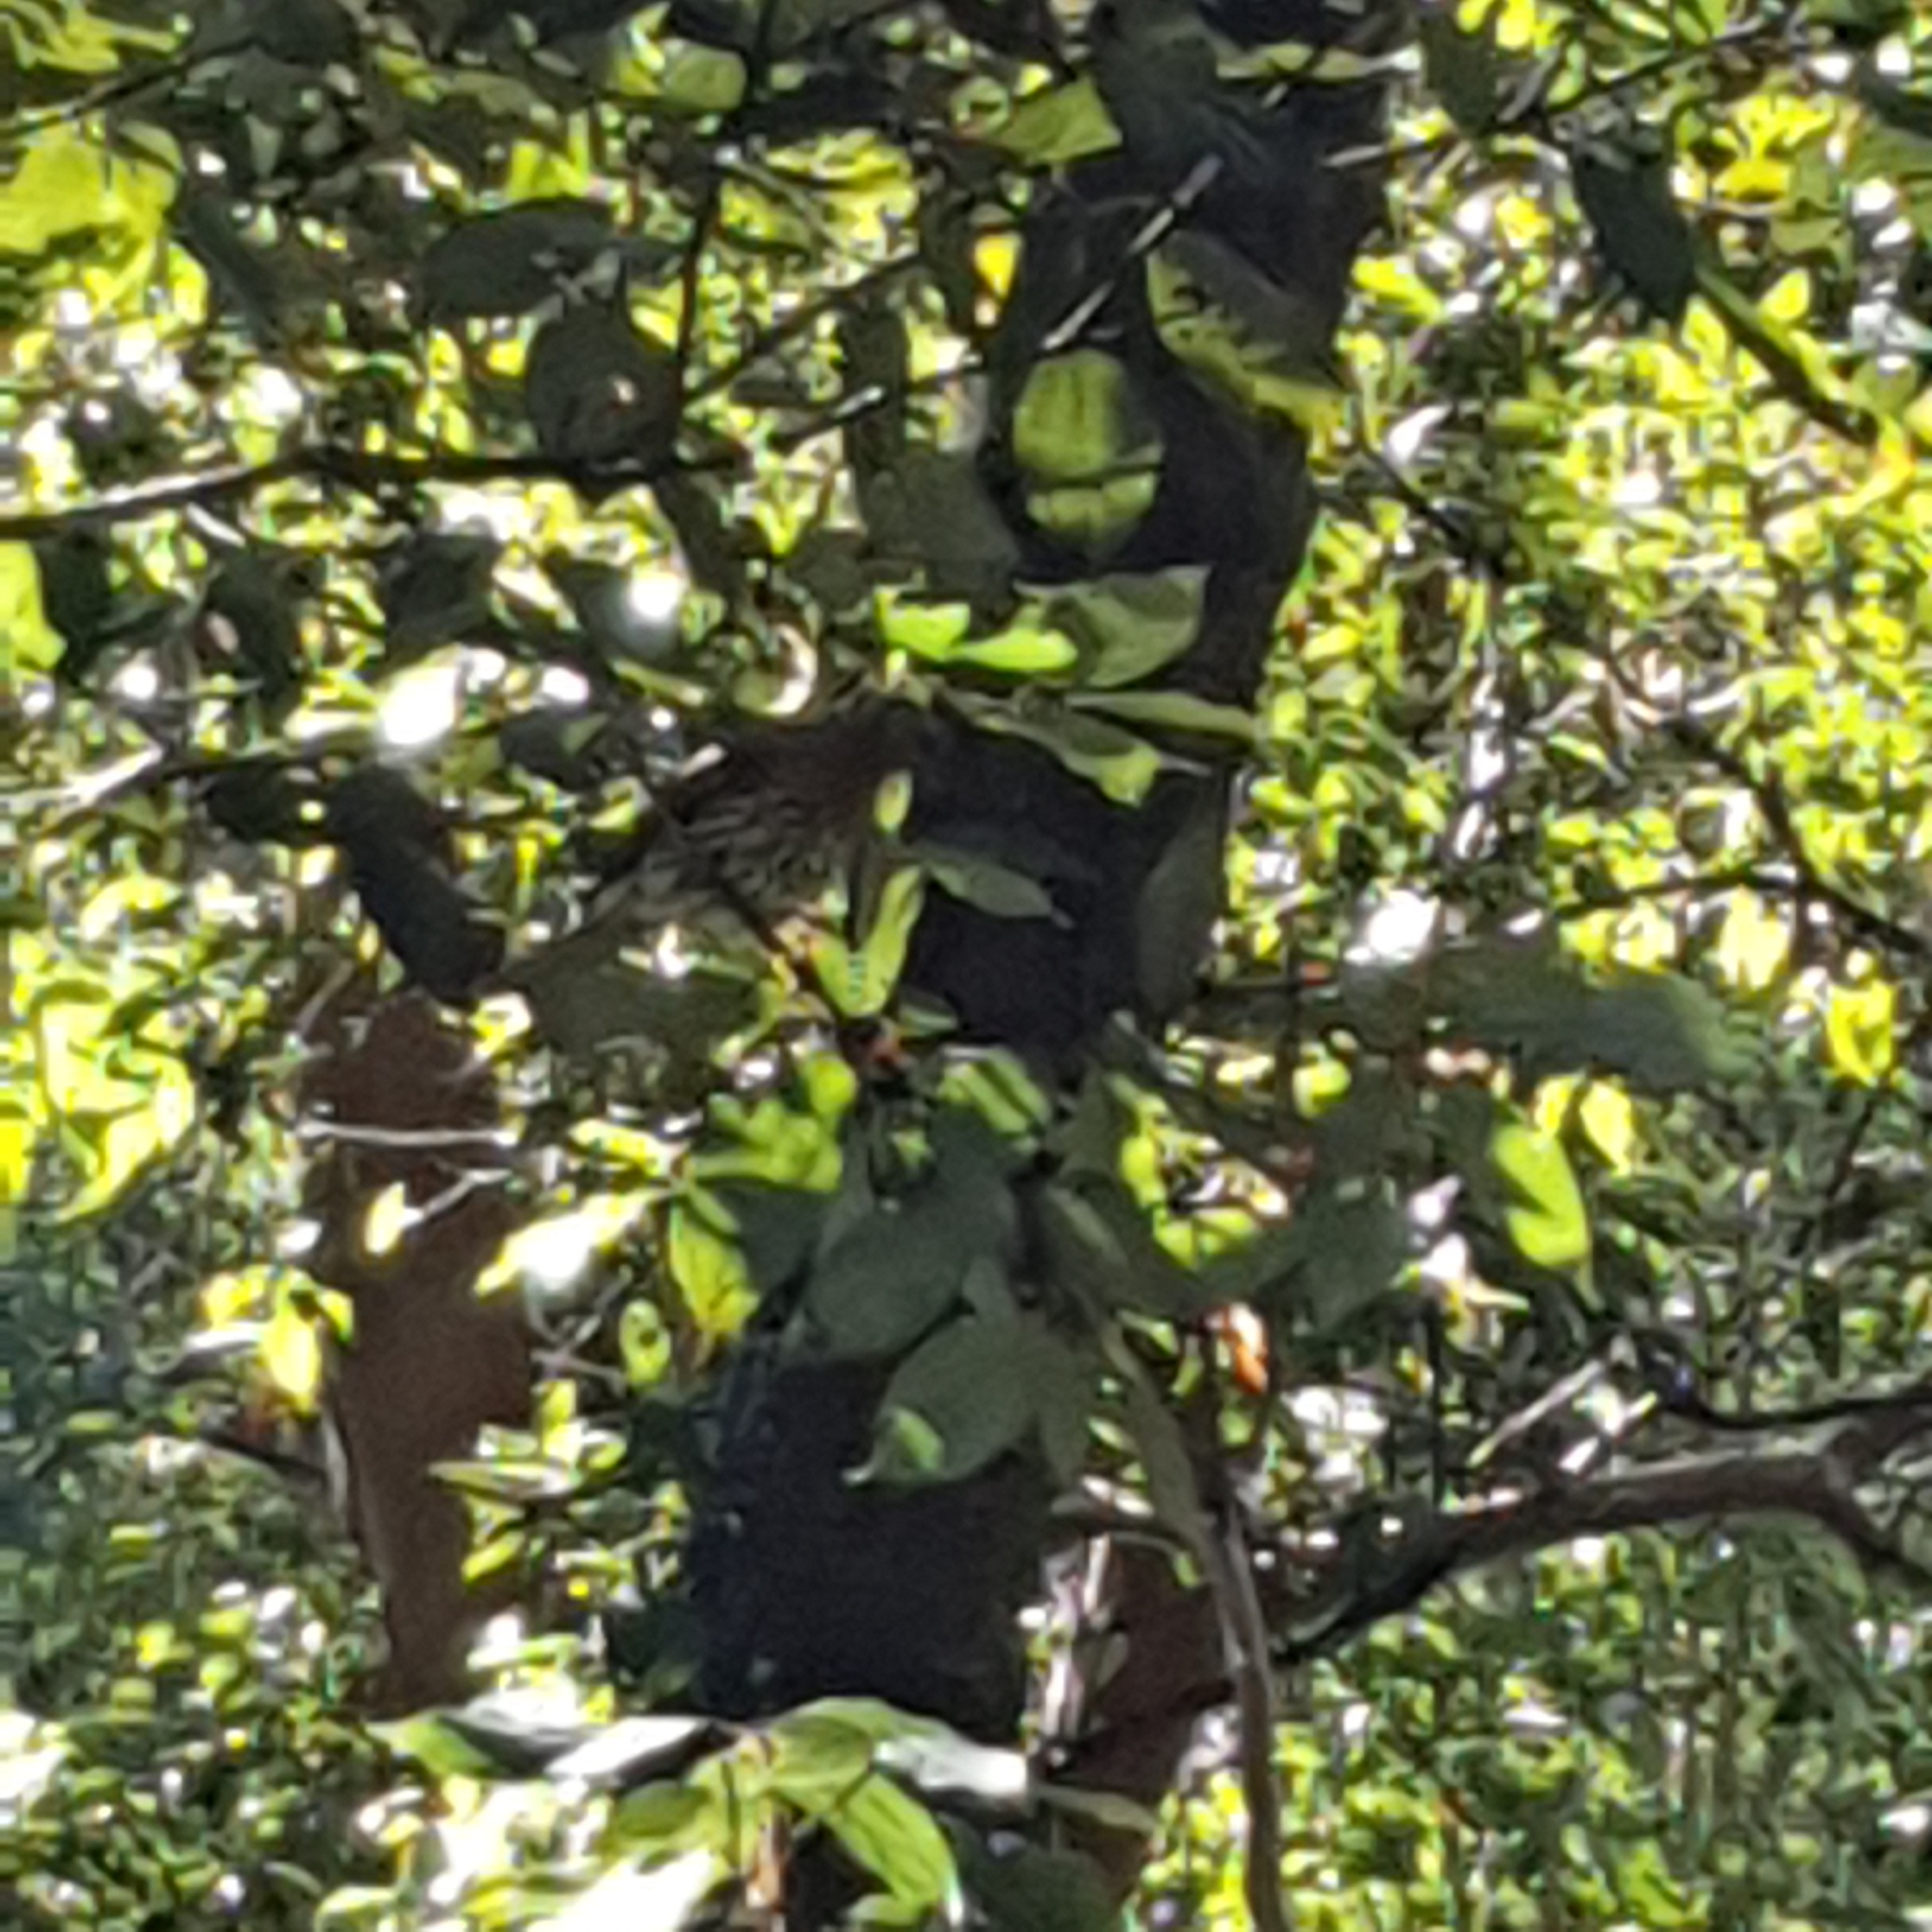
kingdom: Animalia
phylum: Chordata
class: Aves
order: Passeriformes
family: Oriolidae
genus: Sphecotheres
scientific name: Sphecotheres vieilloti
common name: Australasian figbird
